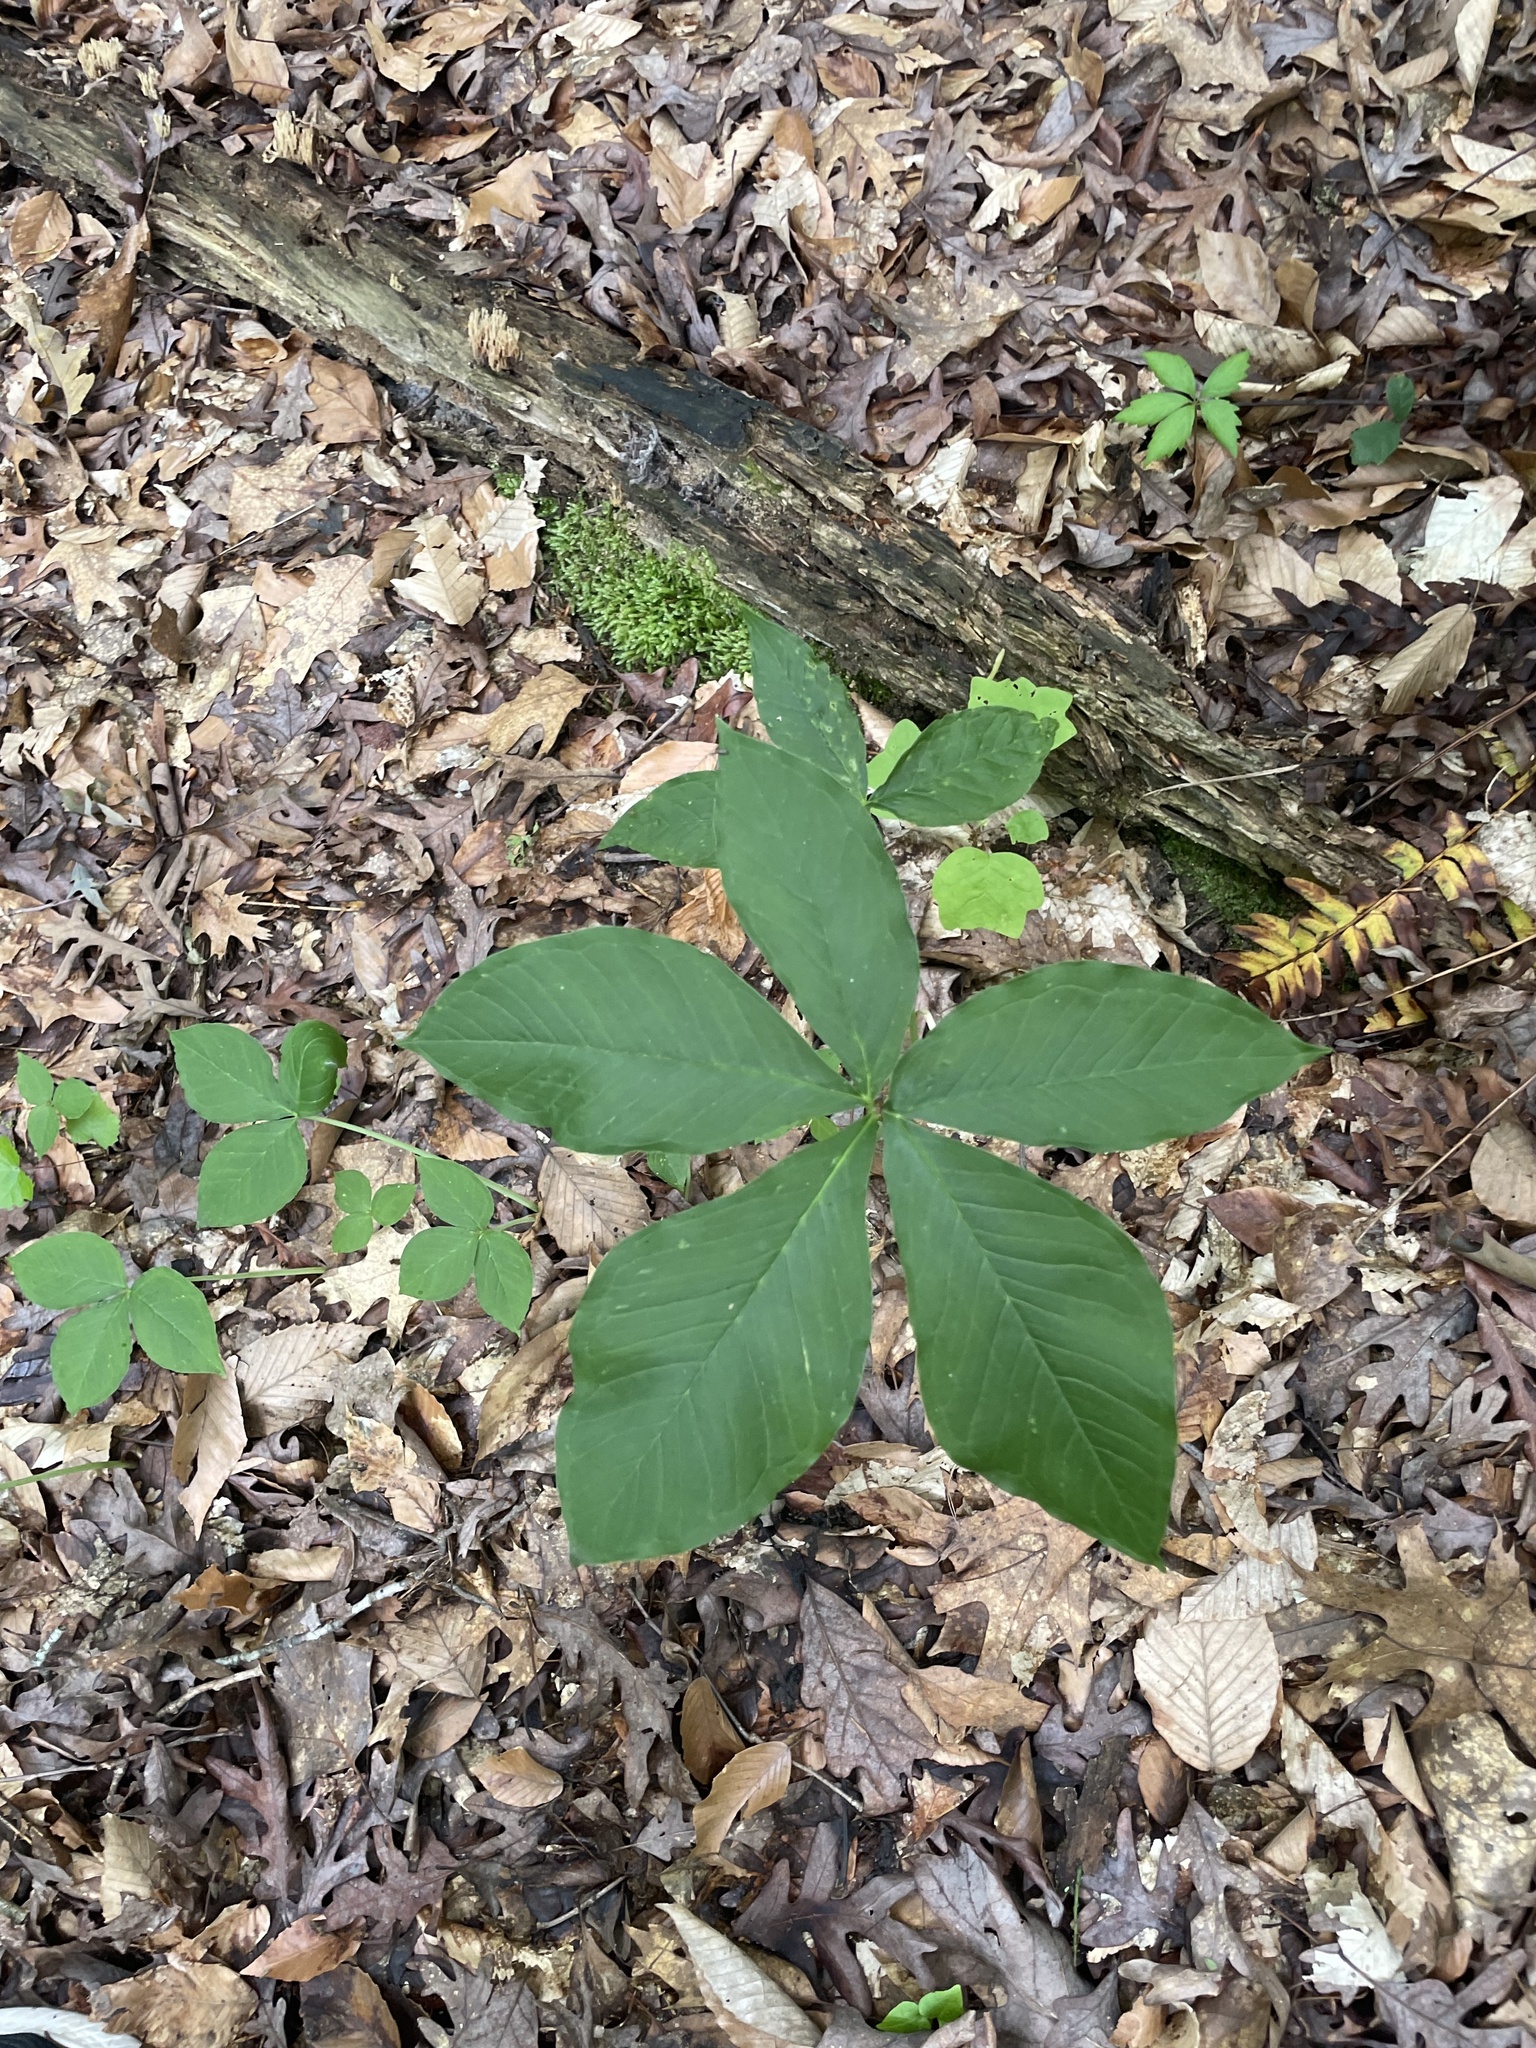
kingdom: Plantae
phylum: Tracheophyta
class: Liliopsida
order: Alismatales
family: Araceae
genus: Arisaema
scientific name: Arisaema quinatum
